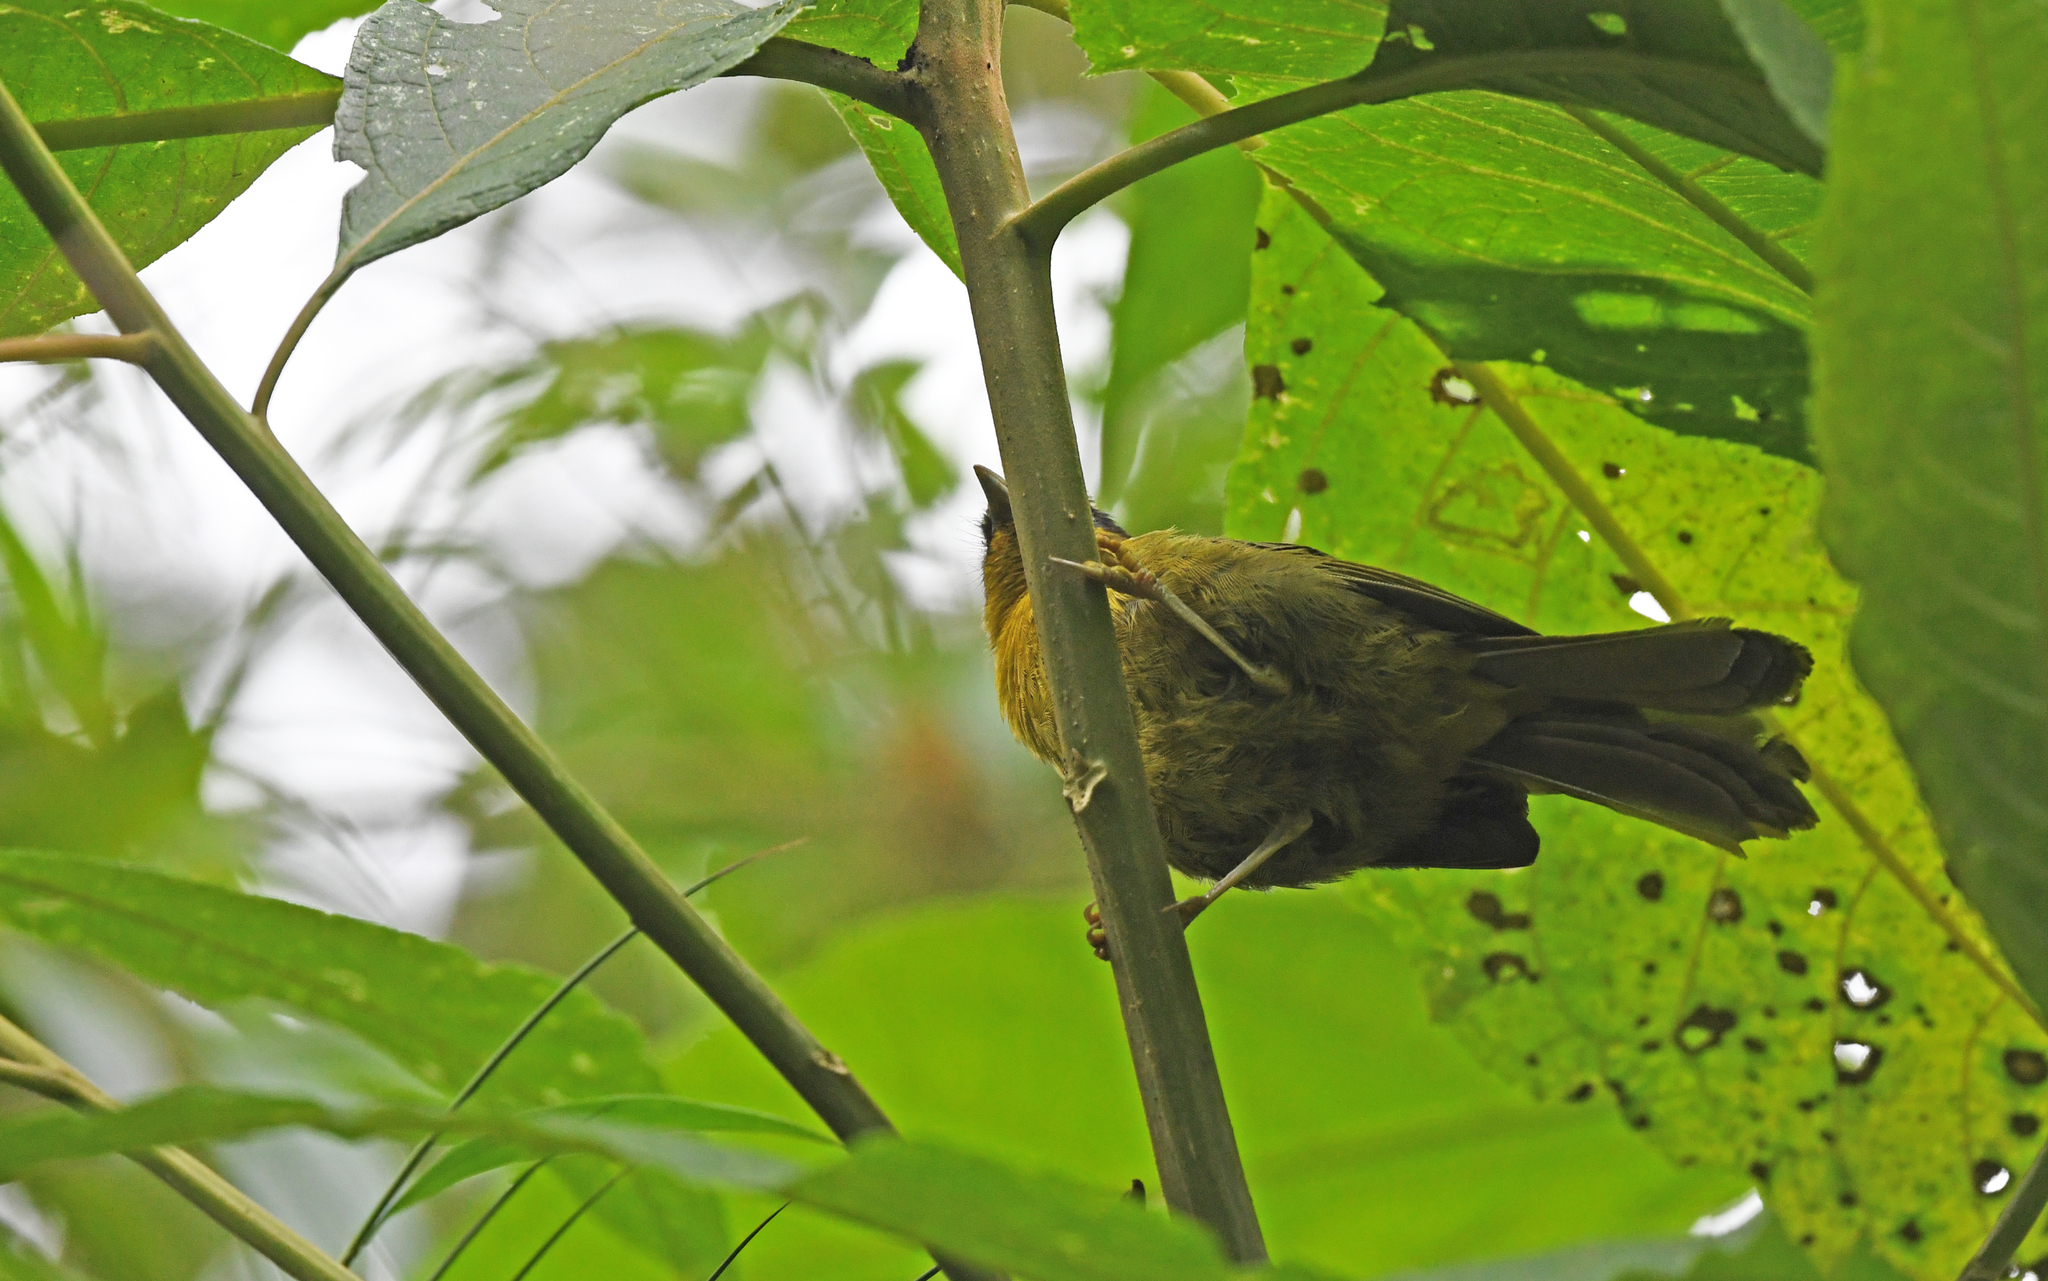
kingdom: Animalia
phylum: Chordata
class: Aves
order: Passeriformes
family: Thraupidae
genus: Kleinothraupis
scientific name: Kleinothraupis atropileus
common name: Black-capped hemispingus
